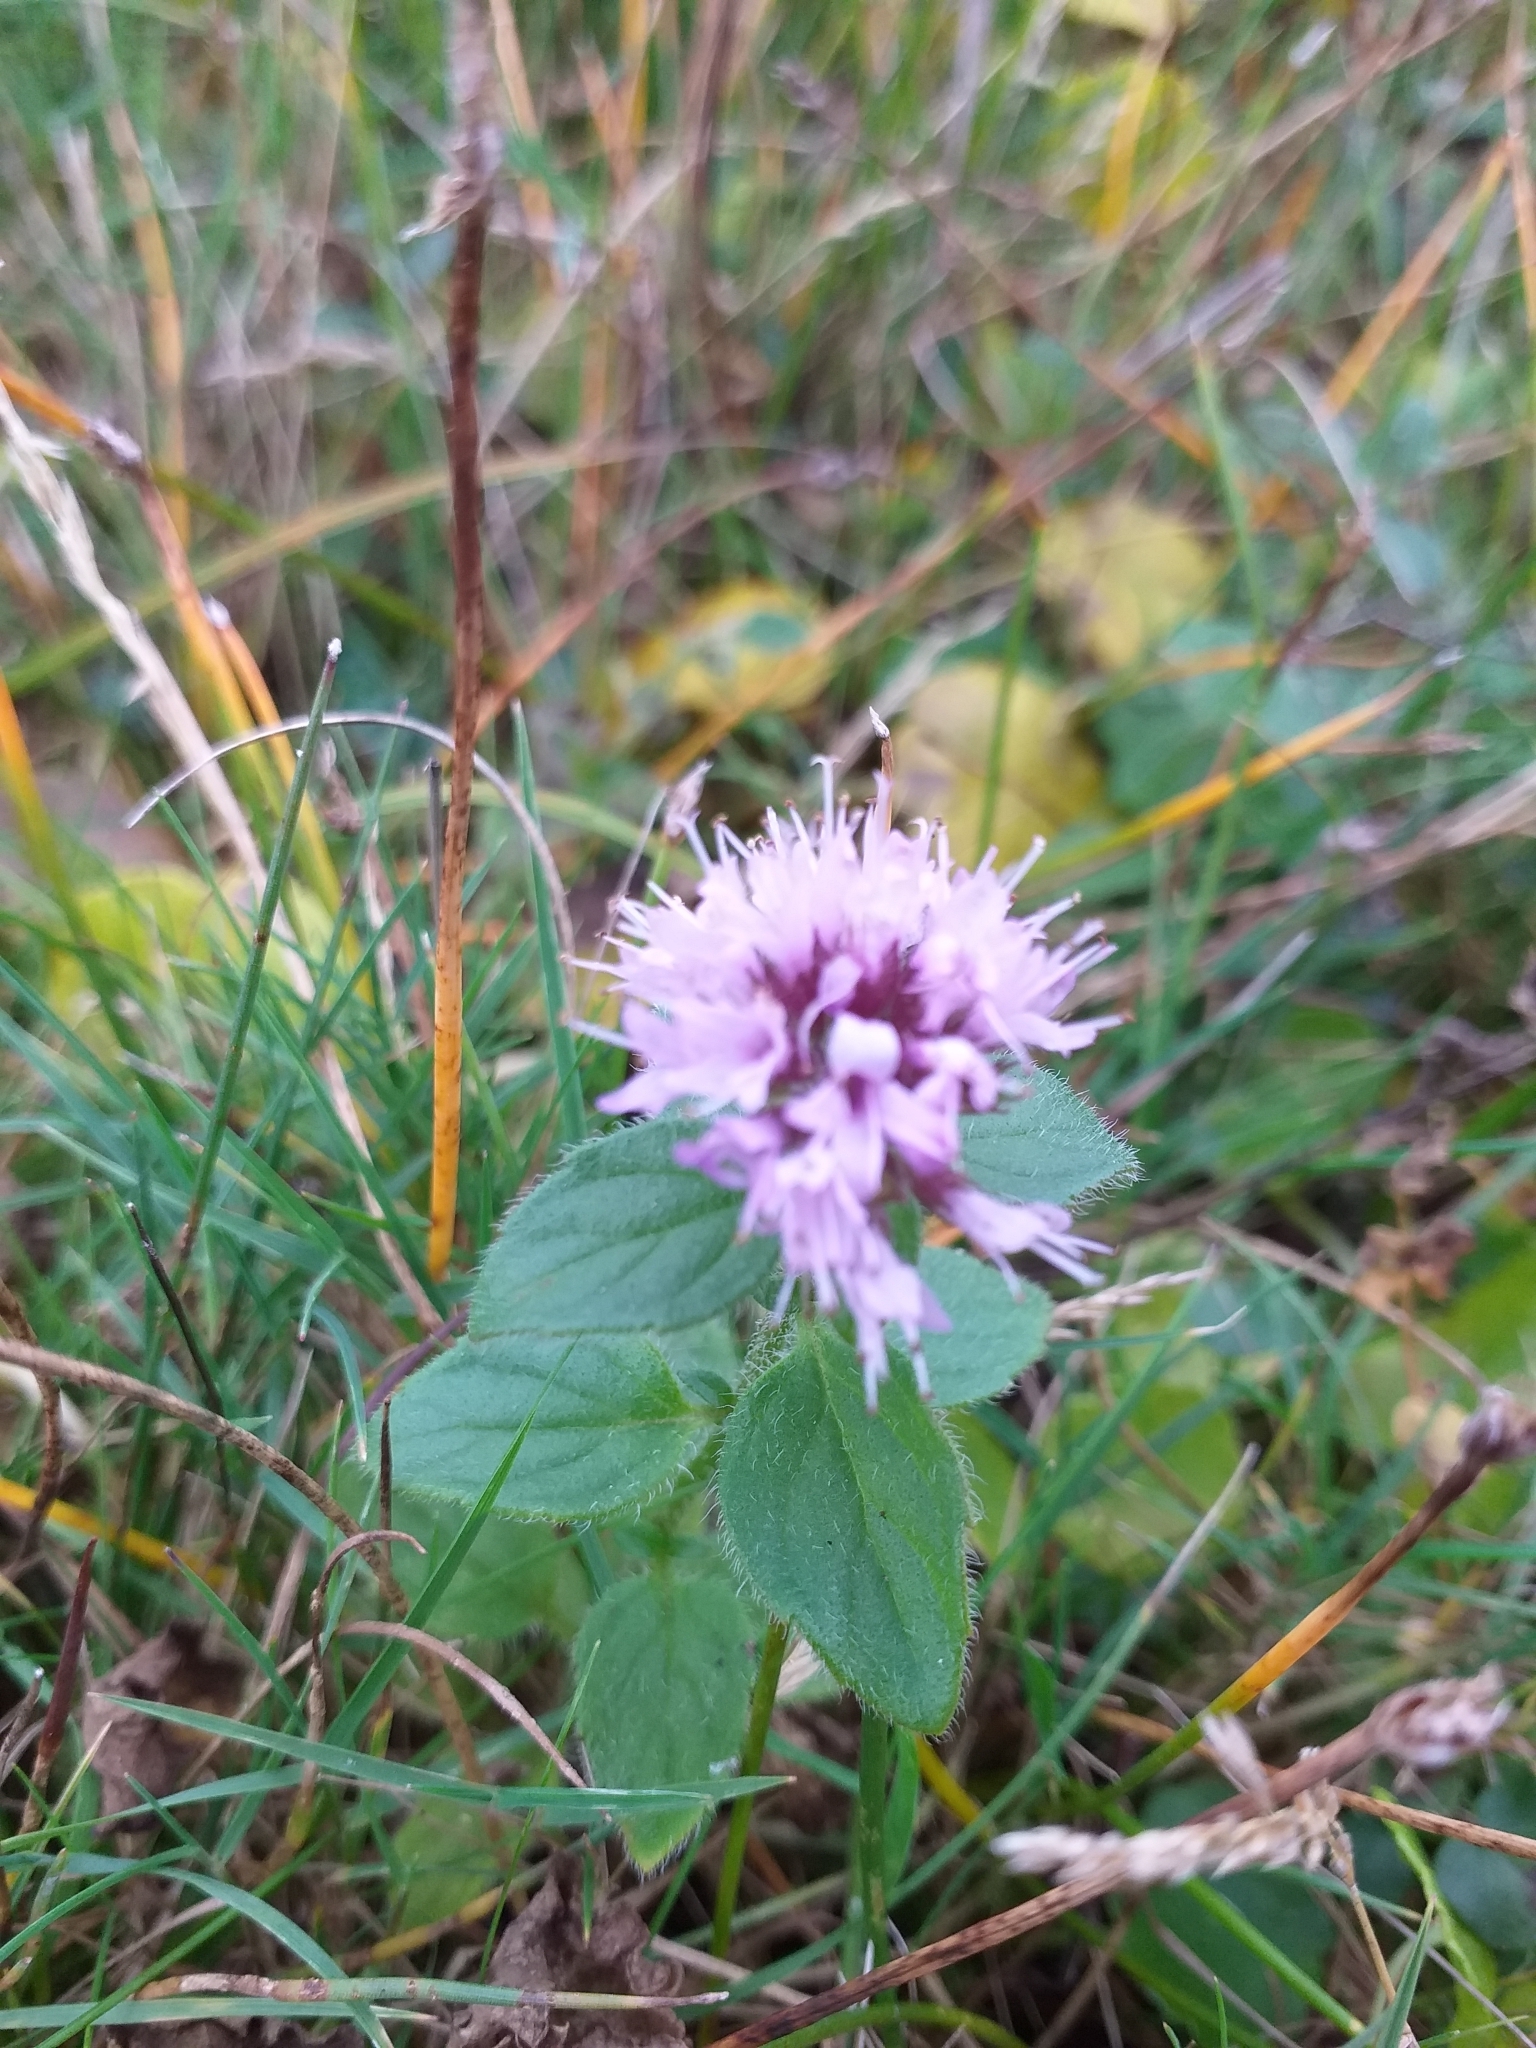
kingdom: Plantae
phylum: Tracheophyta
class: Magnoliopsida
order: Lamiales
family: Lamiaceae
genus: Mentha
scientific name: Mentha aquatica
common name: Water mint
